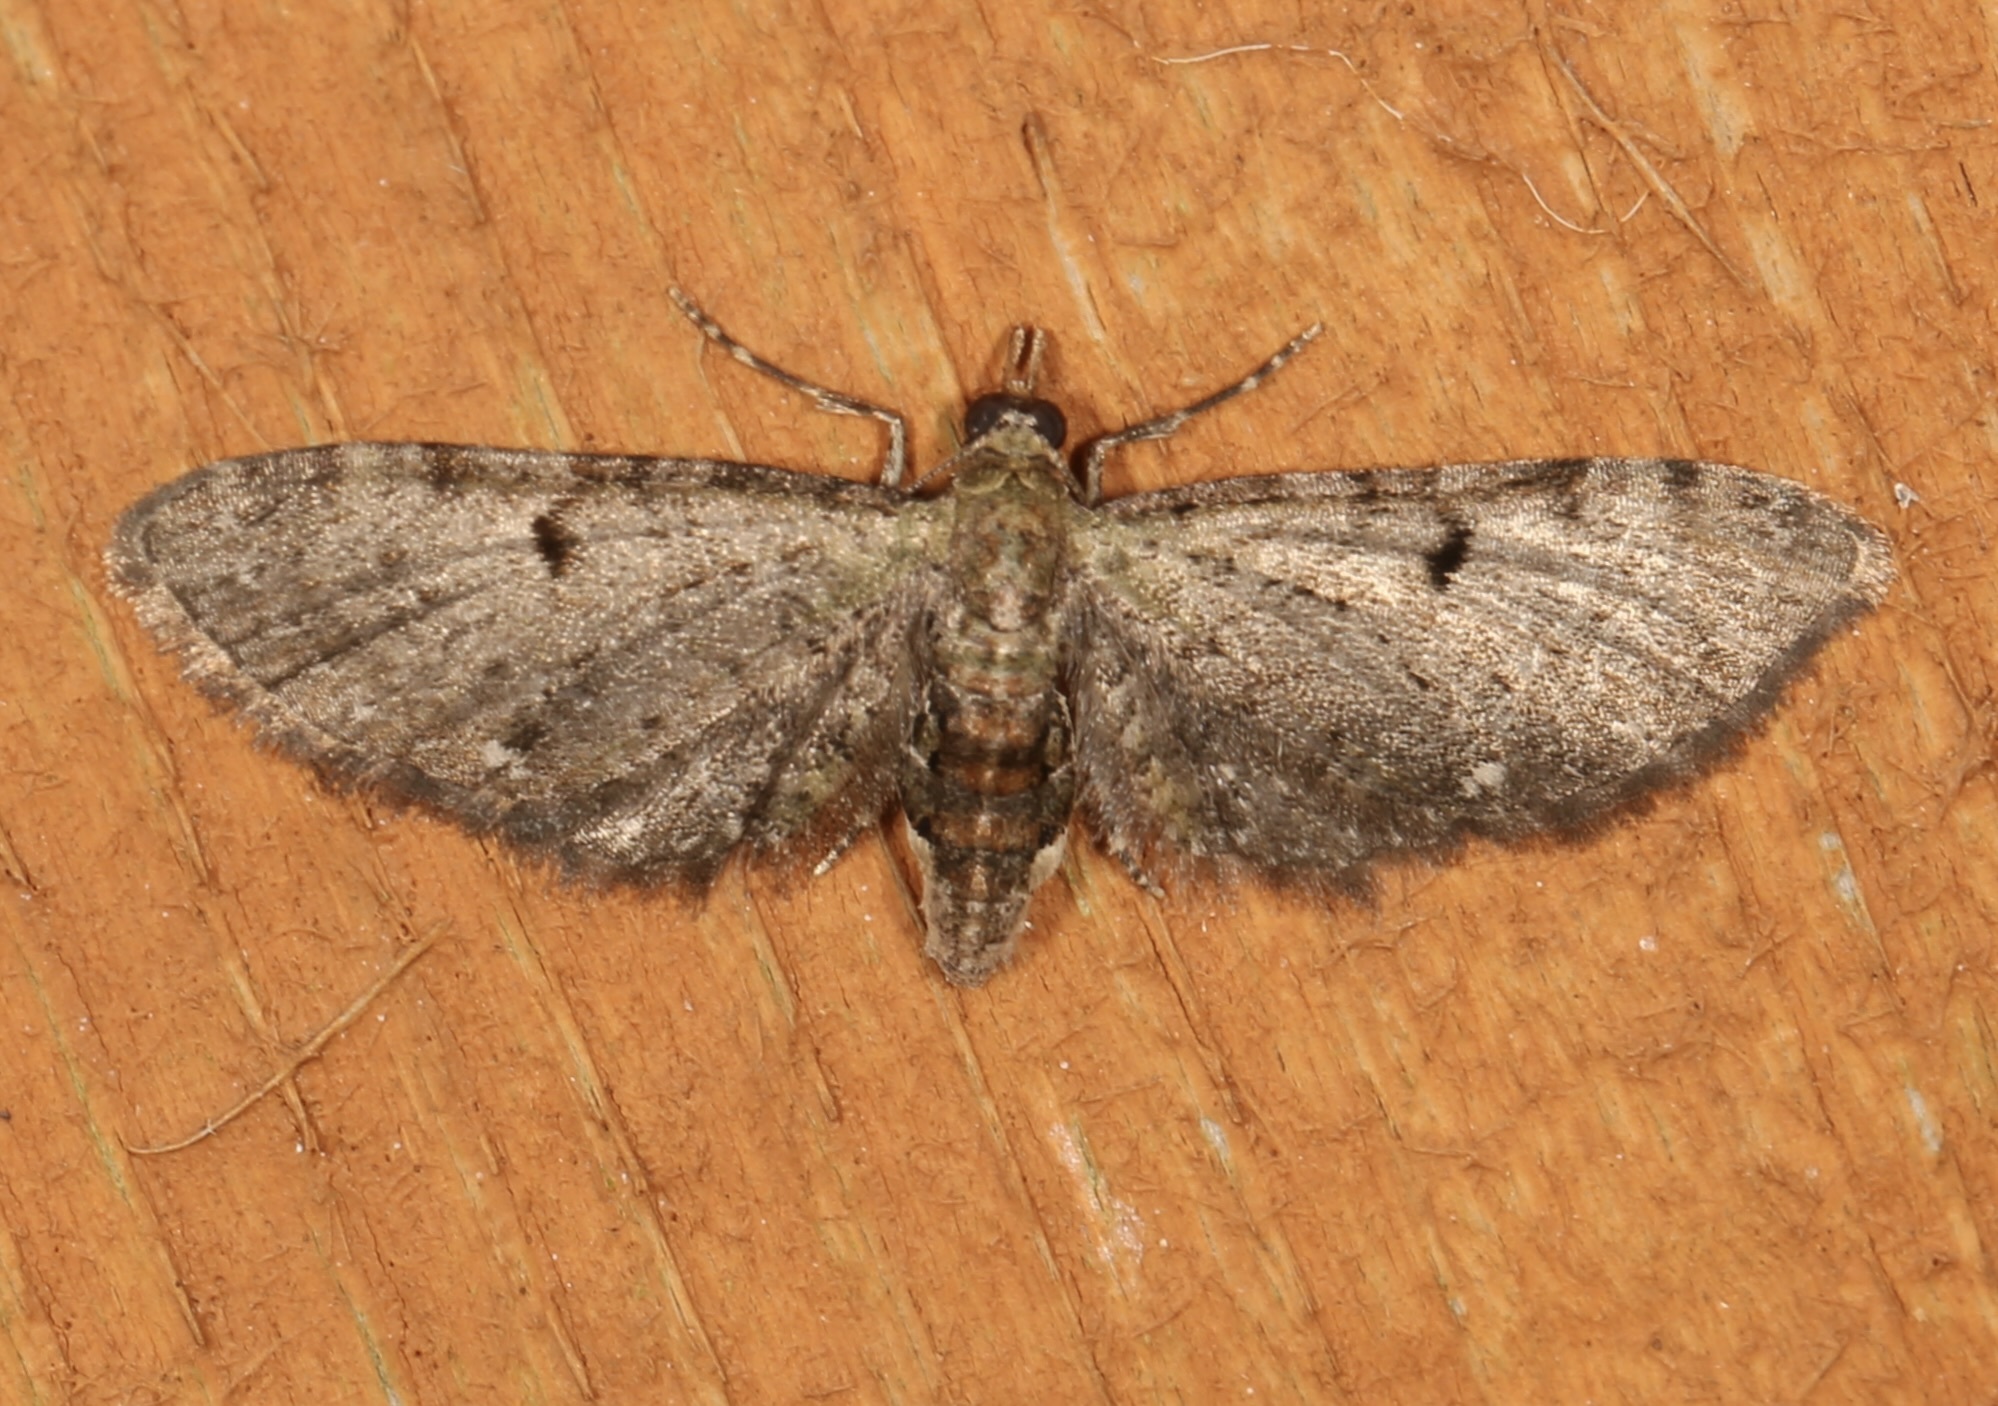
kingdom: Animalia
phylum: Arthropoda
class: Insecta
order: Lepidoptera
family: Geometridae
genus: Eupithecia
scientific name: Eupithecia miserulata
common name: Common eupithecia
